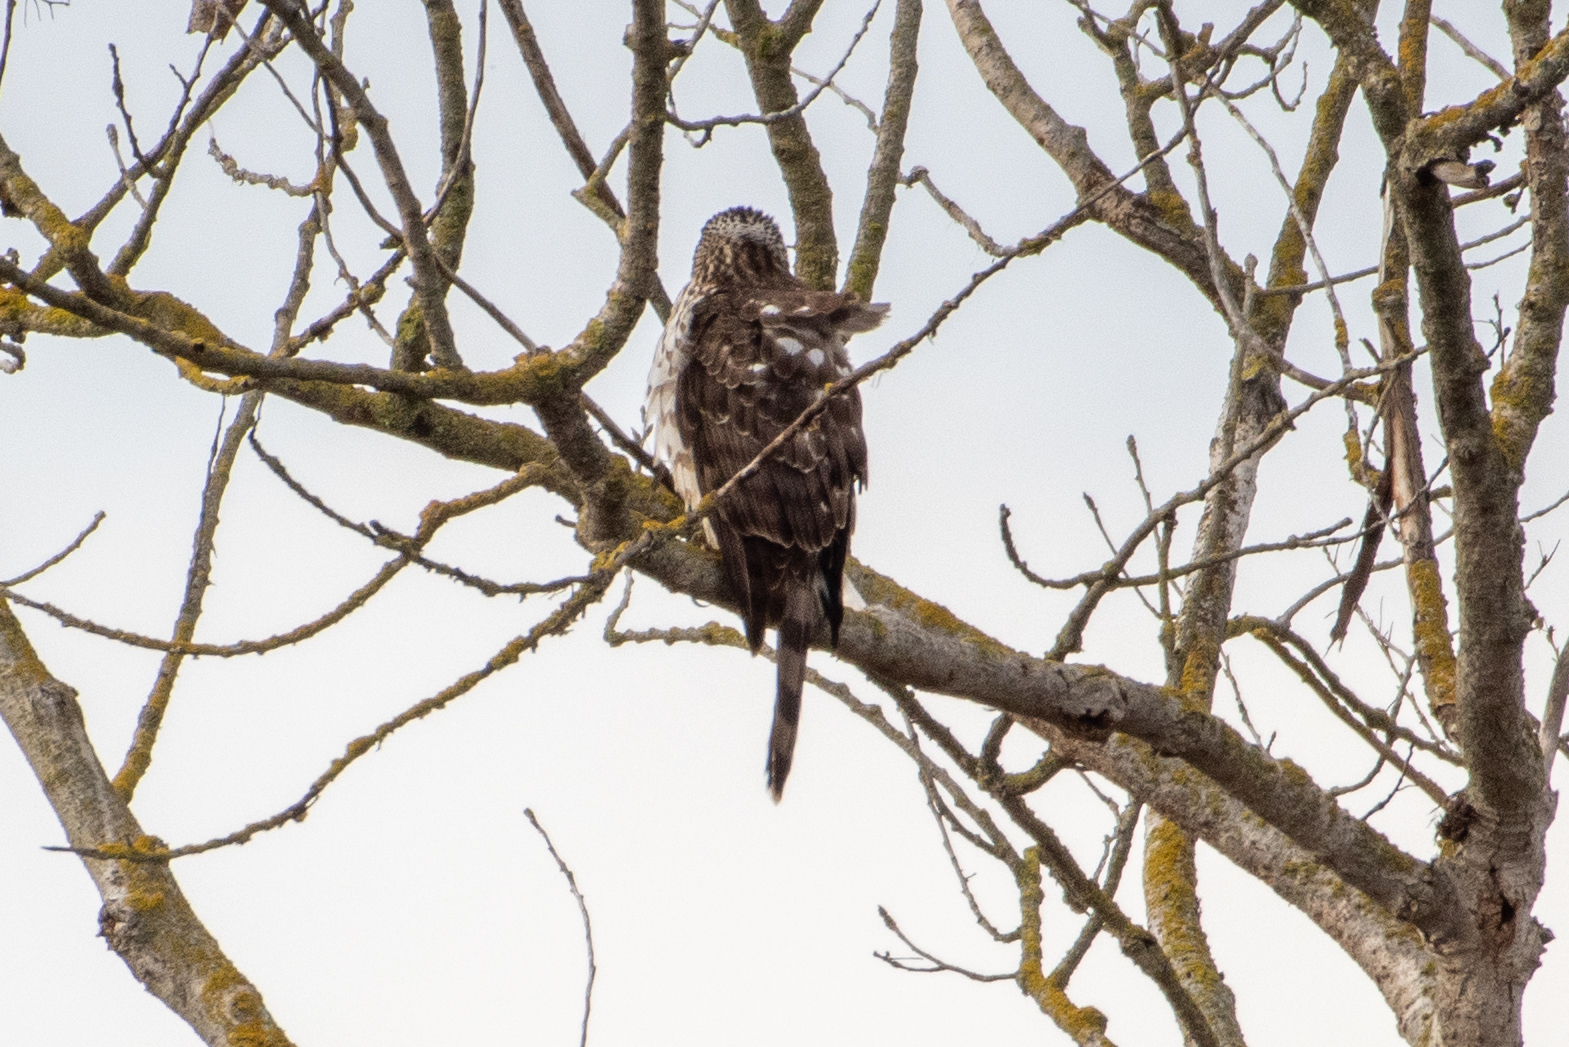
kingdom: Animalia
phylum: Chordata
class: Aves
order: Accipitriformes
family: Accipitridae
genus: Accipiter
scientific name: Accipiter cooperii
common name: Cooper's hawk
